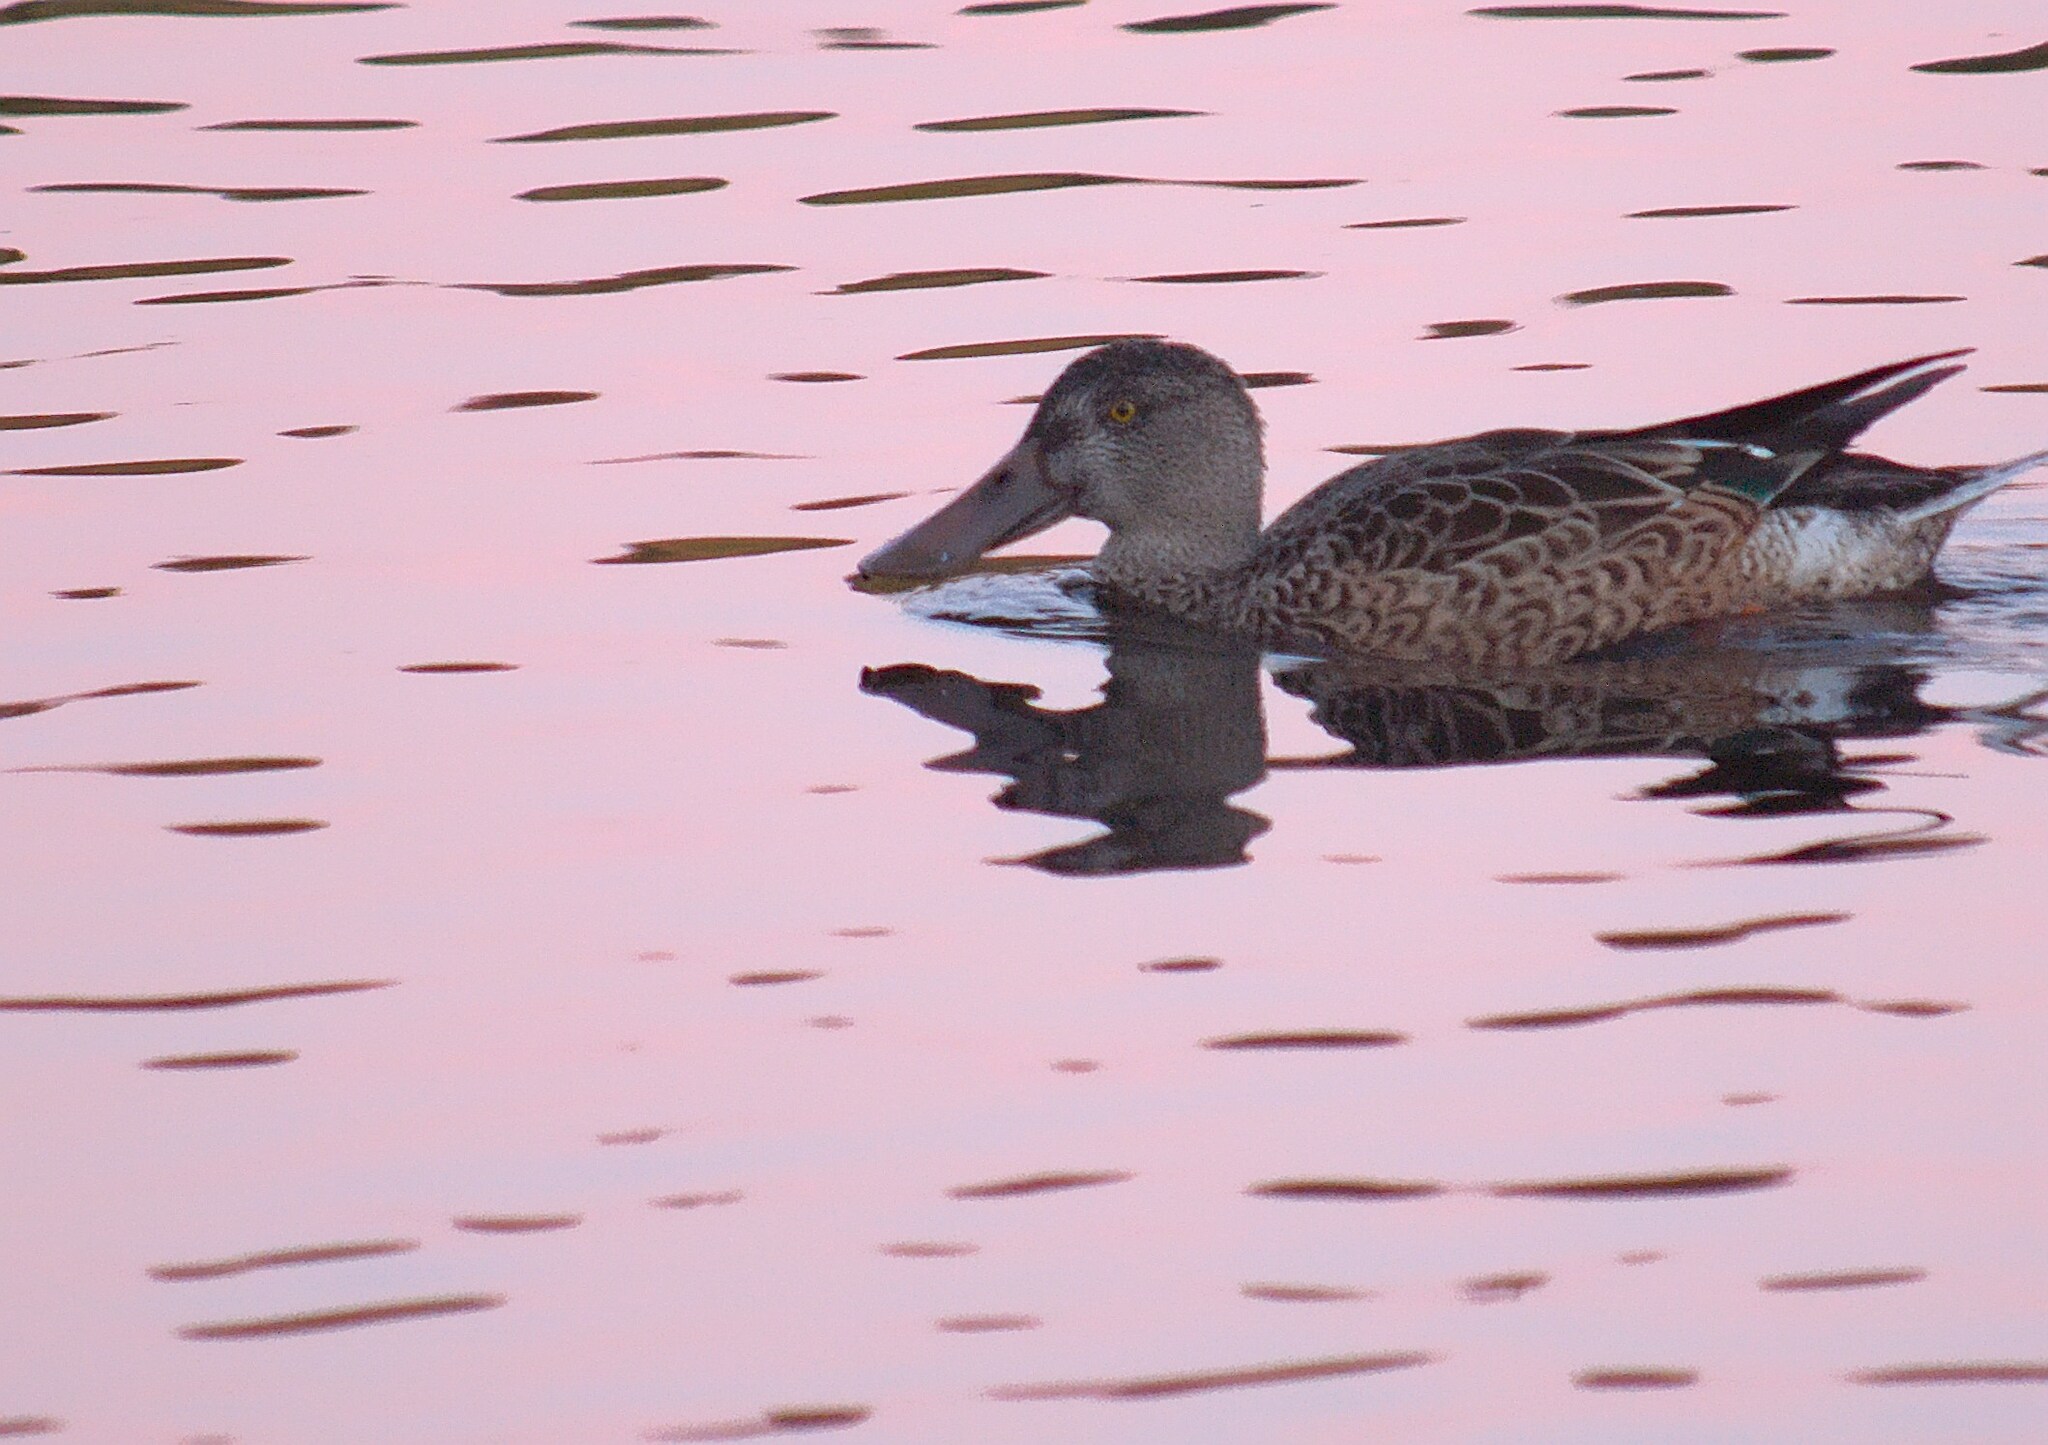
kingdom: Animalia
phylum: Chordata
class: Aves
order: Anseriformes
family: Anatidae
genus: Spatula
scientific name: Spatula clypeata
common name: Northern shoveler
